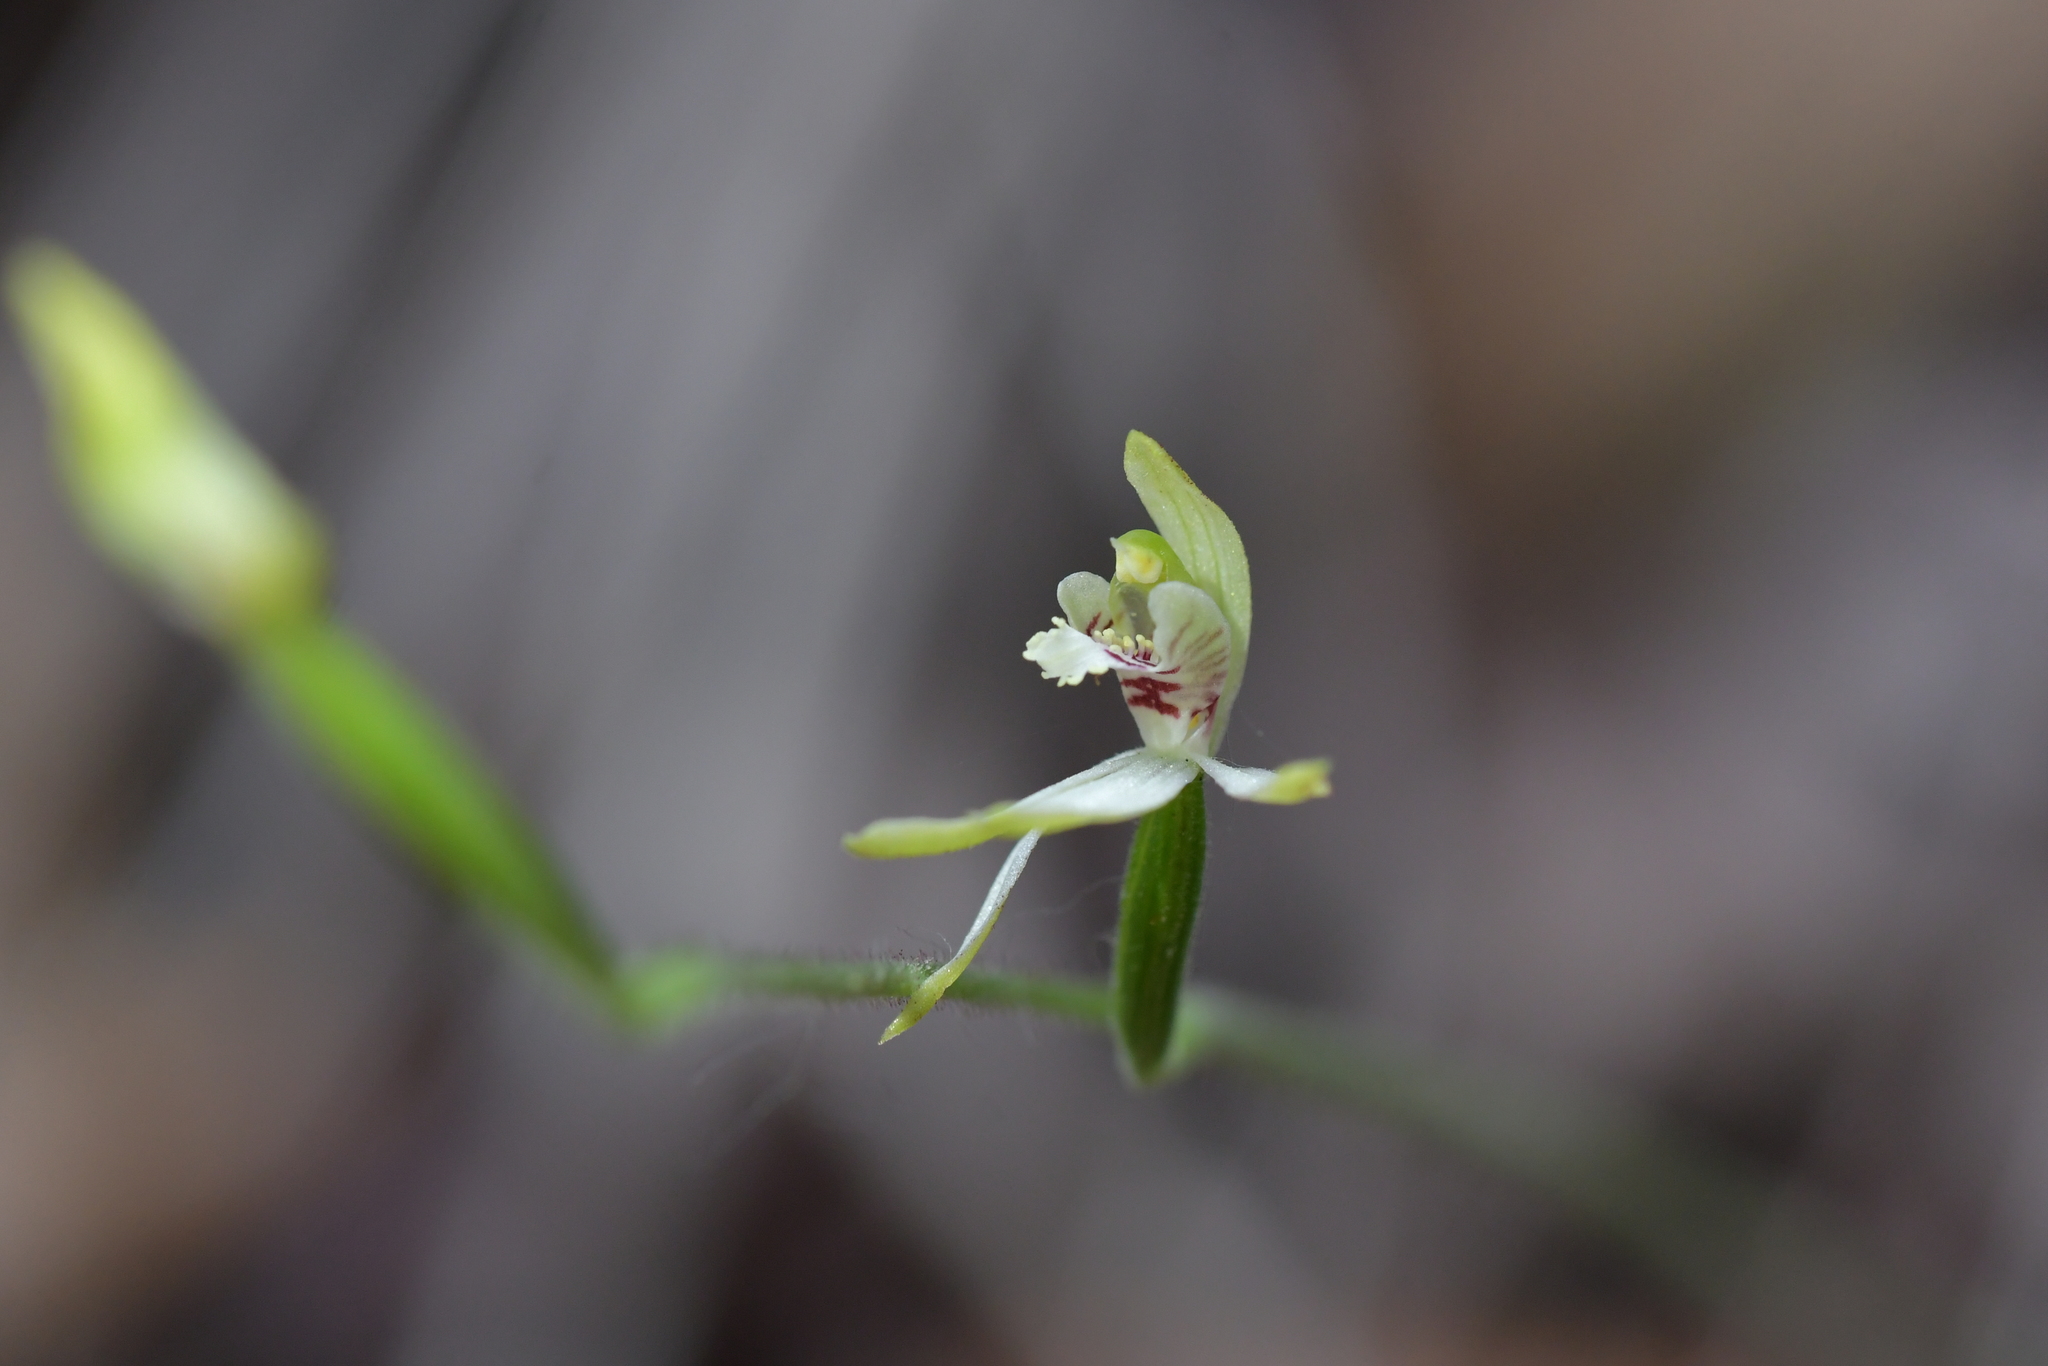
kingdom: Plantae
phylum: Tracheophyta
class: Liliopsida
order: Asparagales
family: Orchidaceae
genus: Caladenia
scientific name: Caladenia chlorostyla
